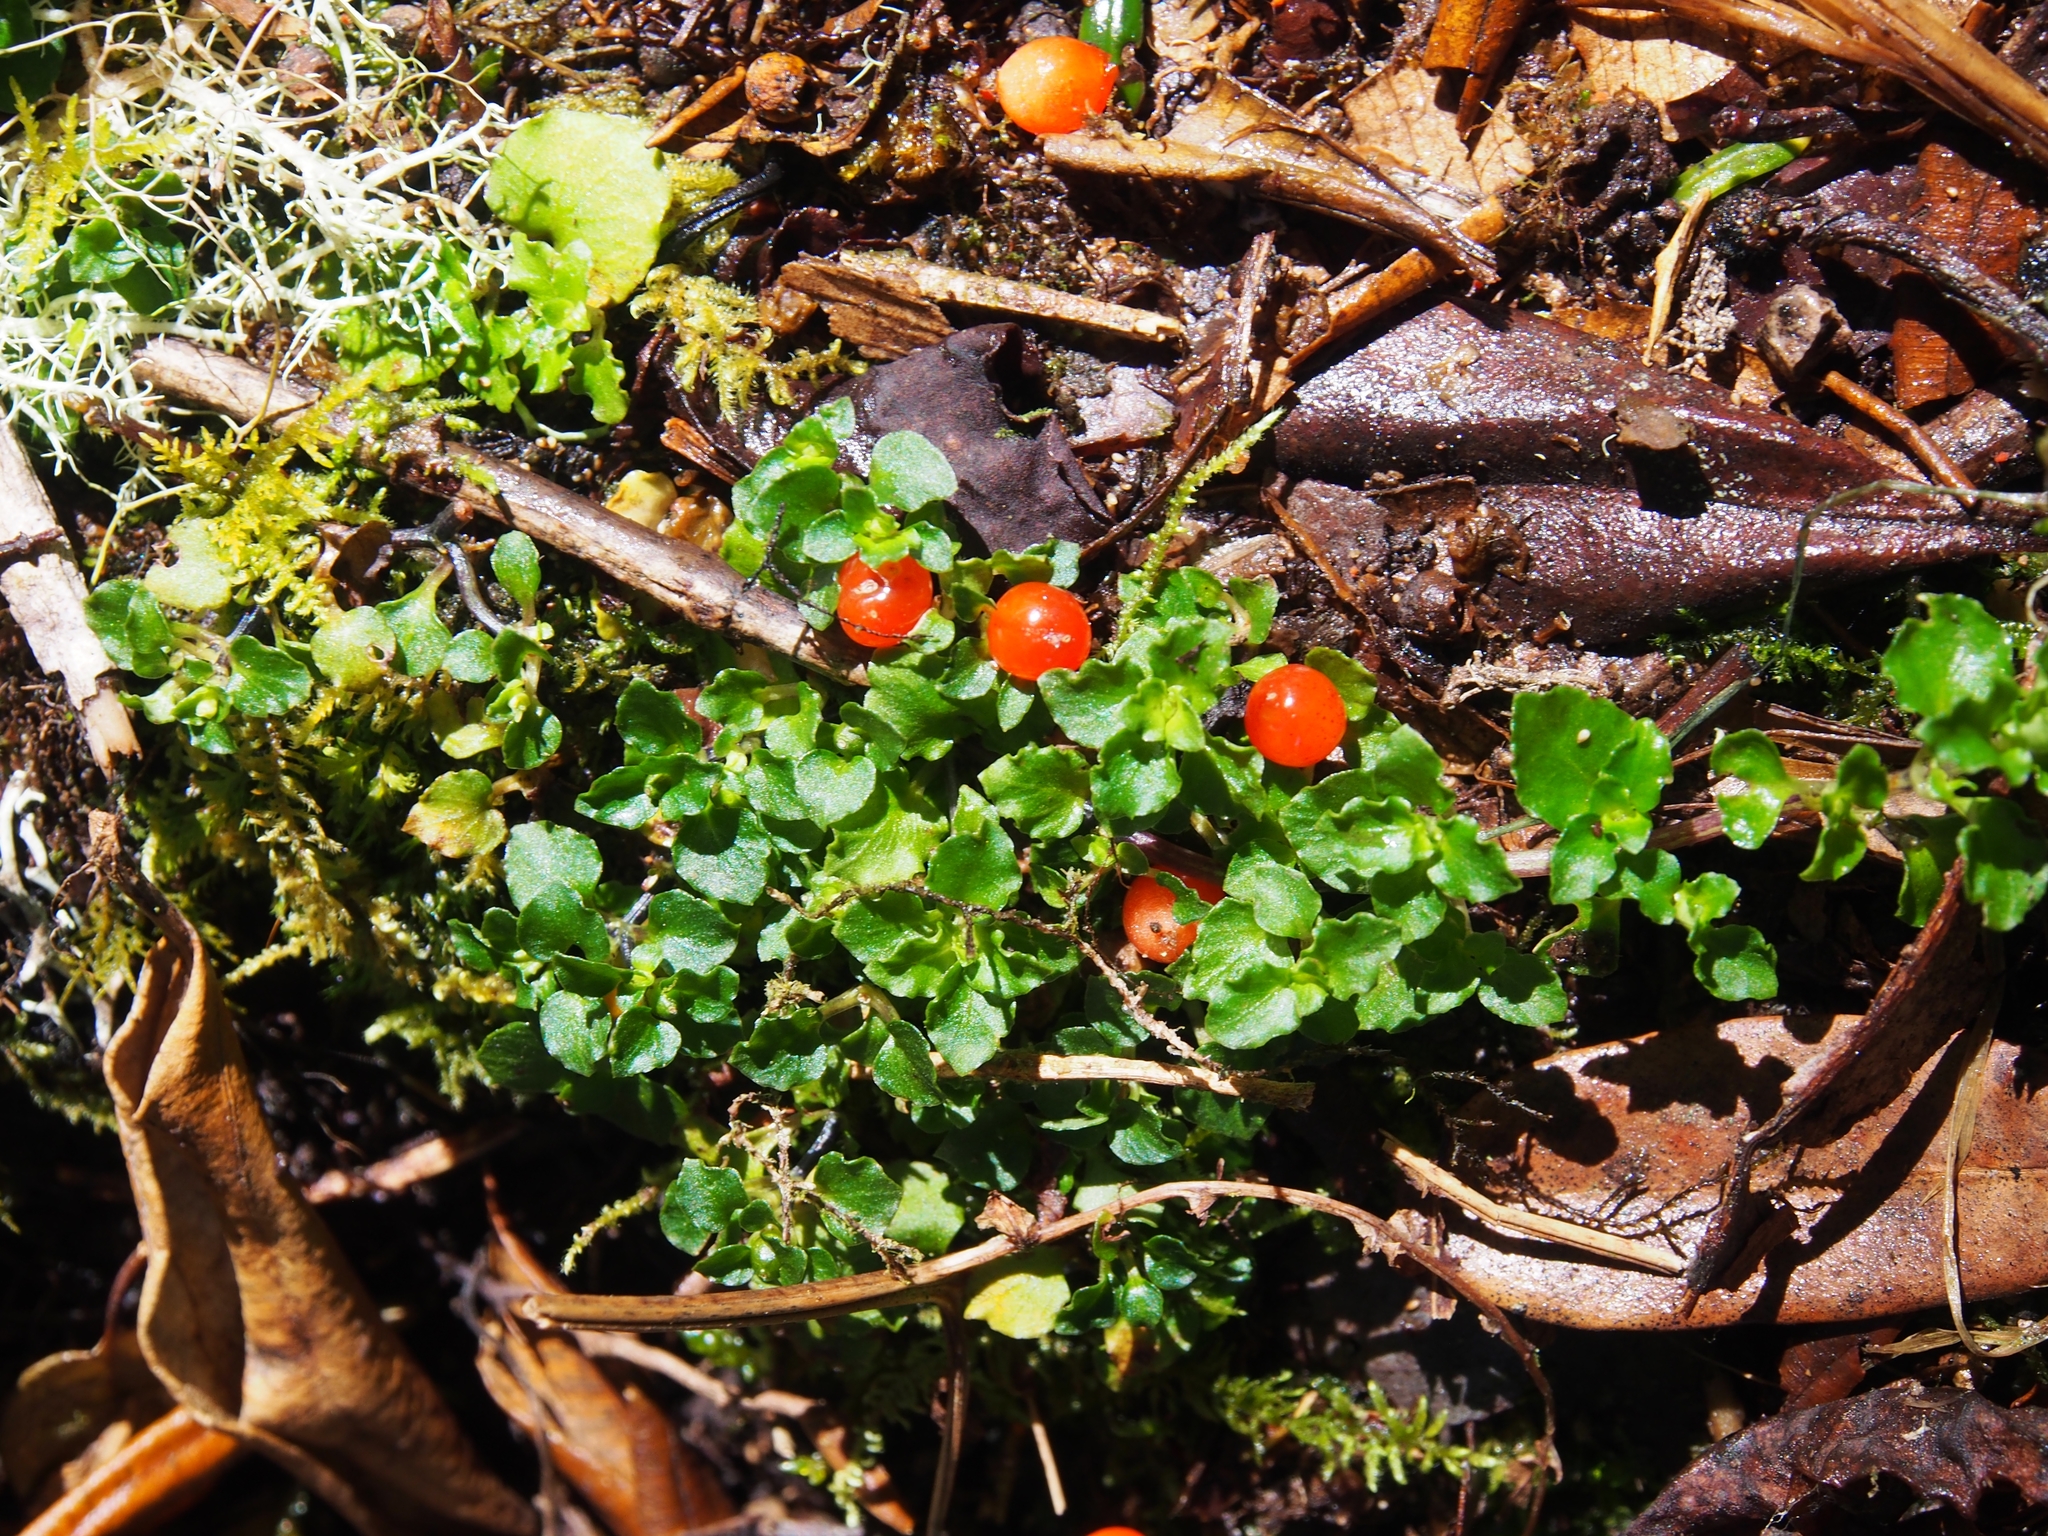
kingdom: Plantae
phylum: Tracheophyta
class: Magnoliopsida
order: Gentianales
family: Rubiaceae
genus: Nertera
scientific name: Nertera granadensis
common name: Beadplant
